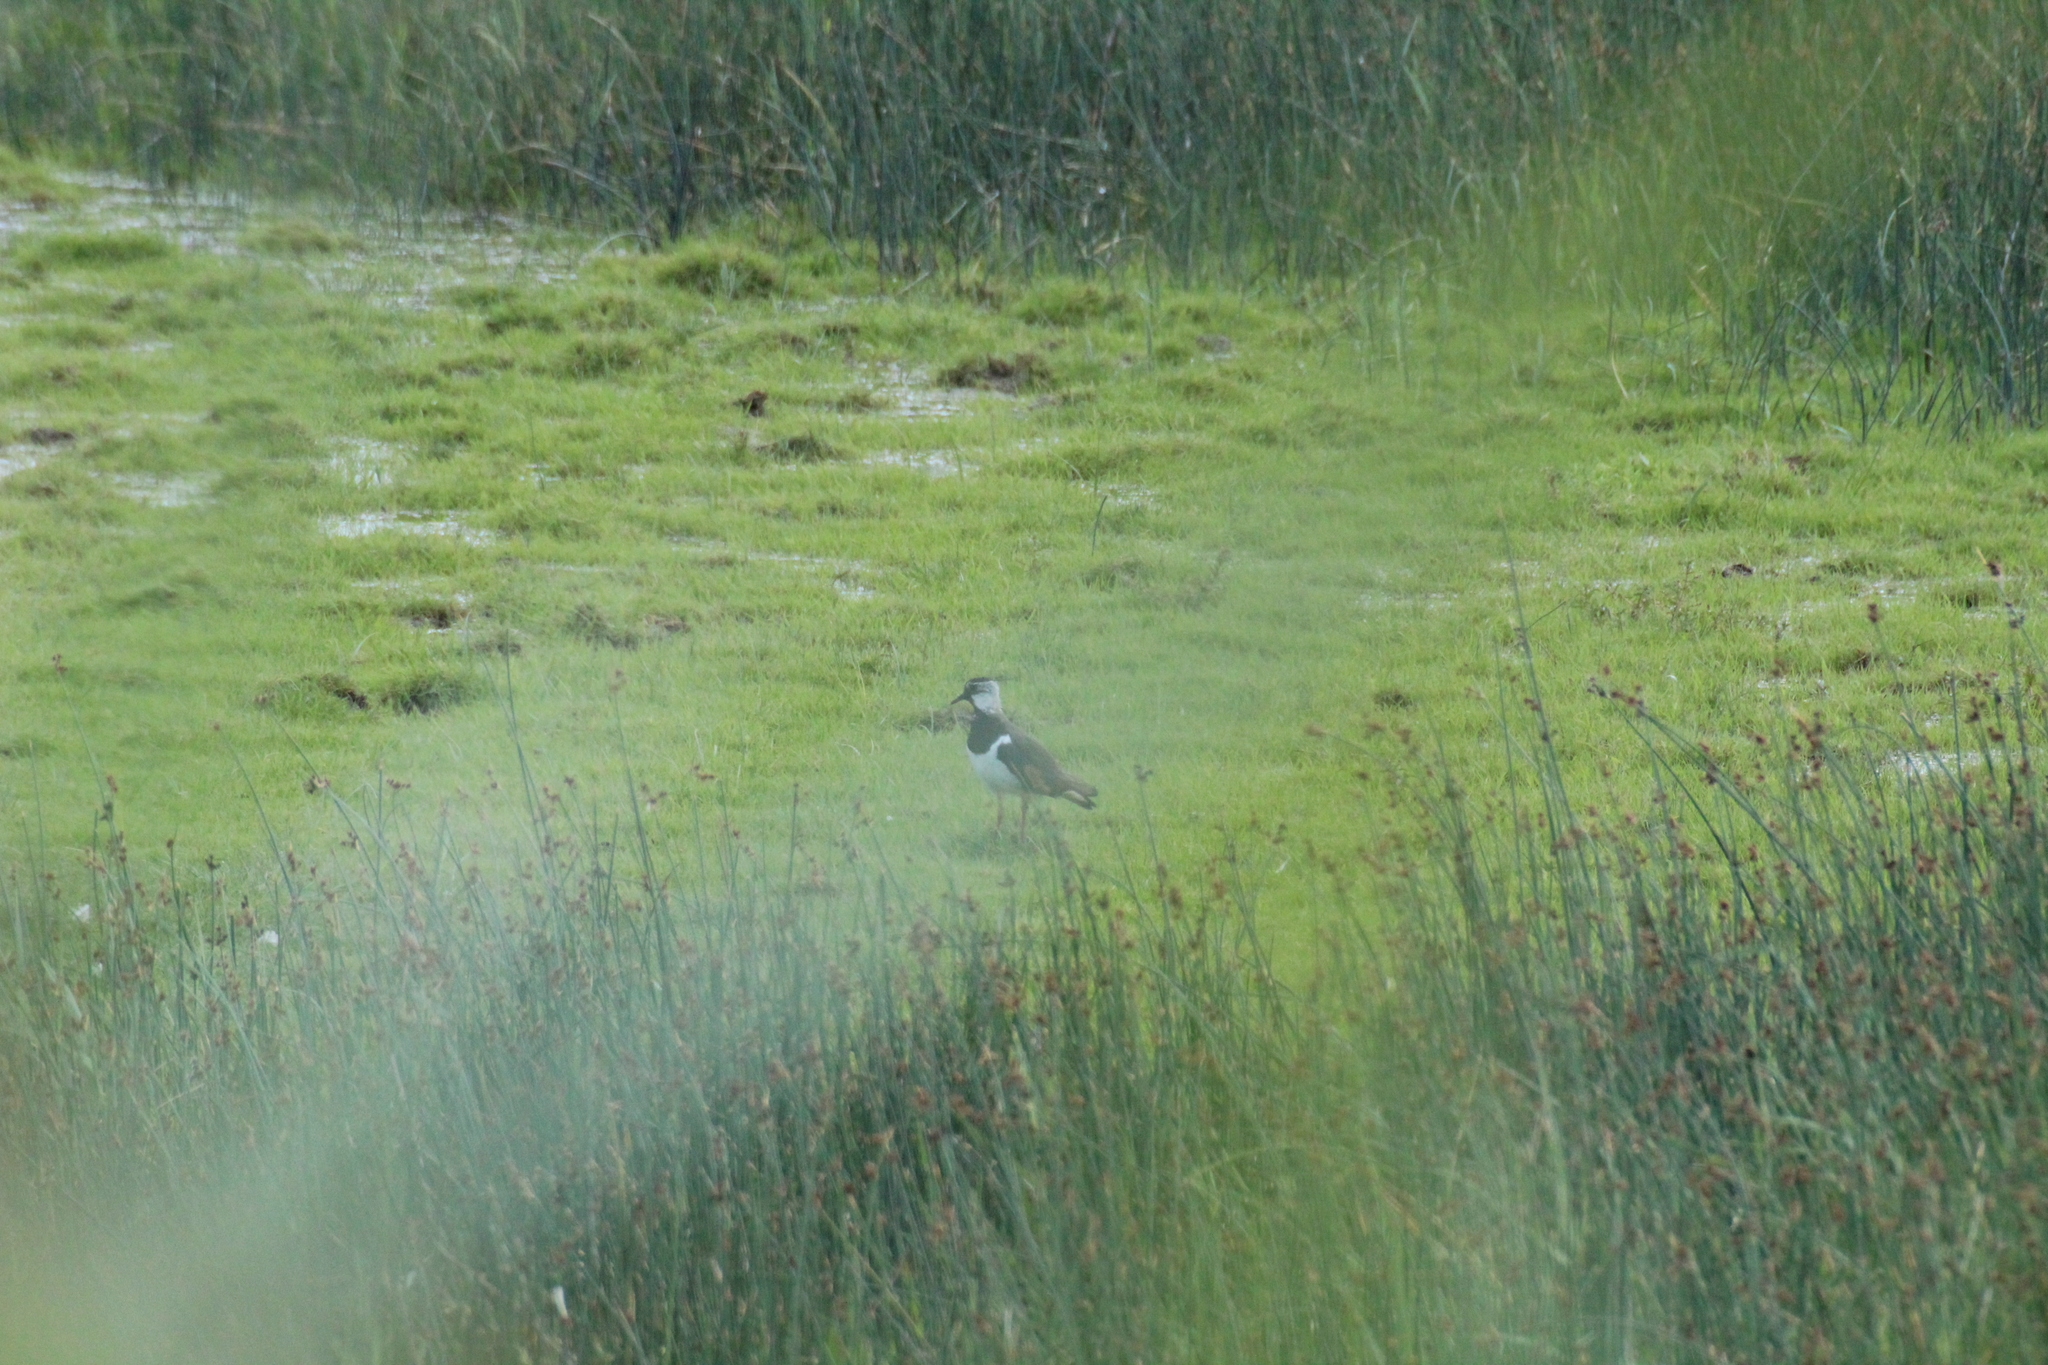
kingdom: Animalia
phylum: Chordata
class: Aves
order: Charadriiformes
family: Charadriidae
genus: Vanellus
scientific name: Vanellus vanellus
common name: Northern lapwing
